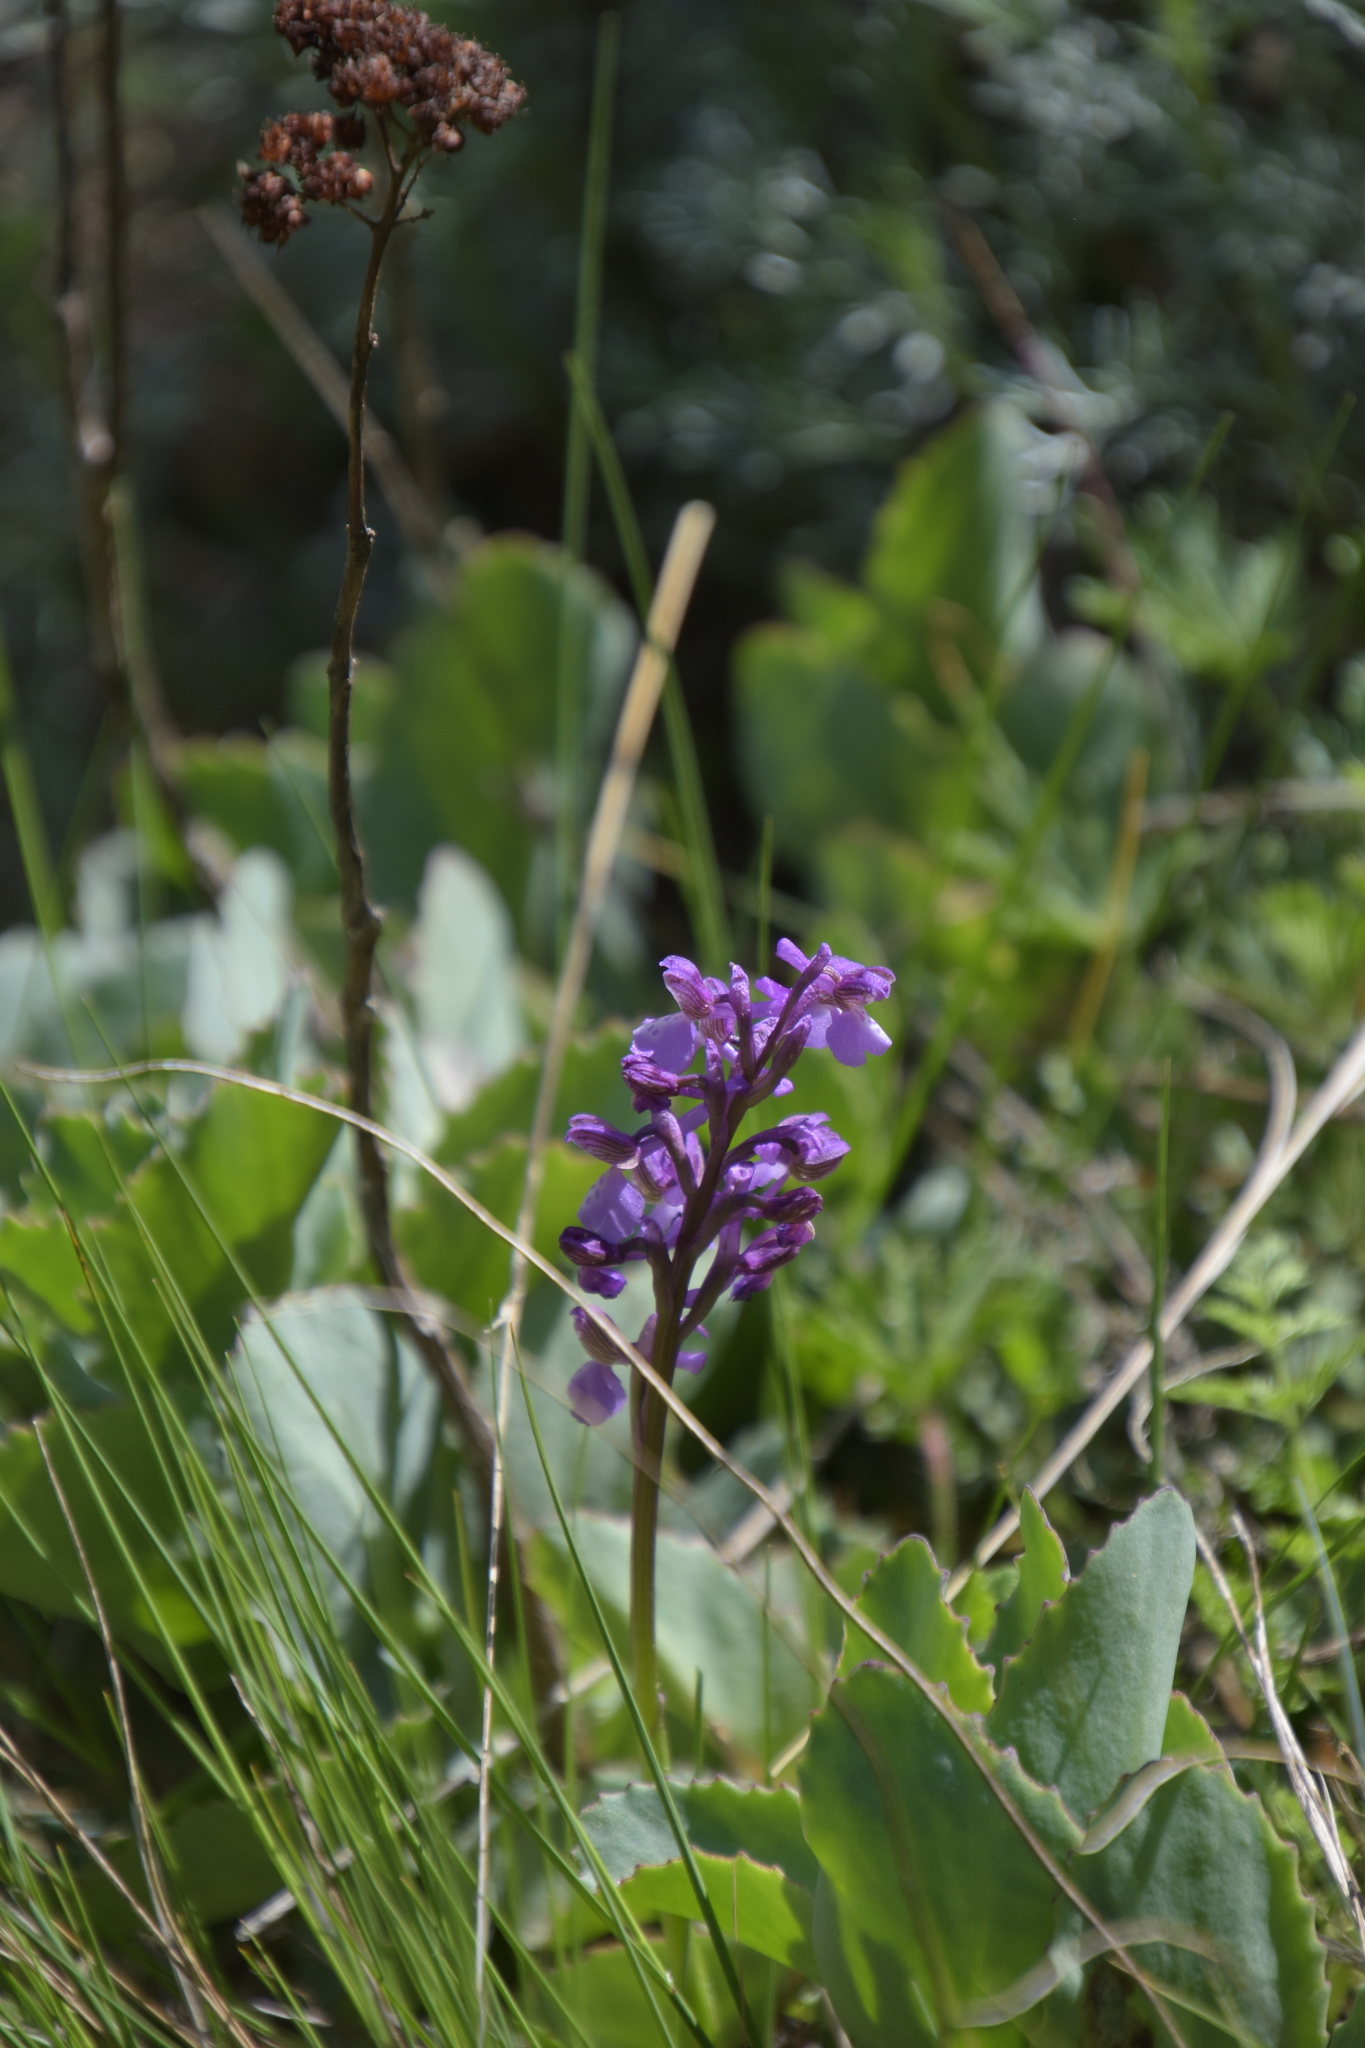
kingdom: Plantae
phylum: Tracheophyta
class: Liliopsida
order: Asparagales
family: Orchidaceae
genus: Anacamptis
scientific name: Anacamptis morio
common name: Green-winged orchid
